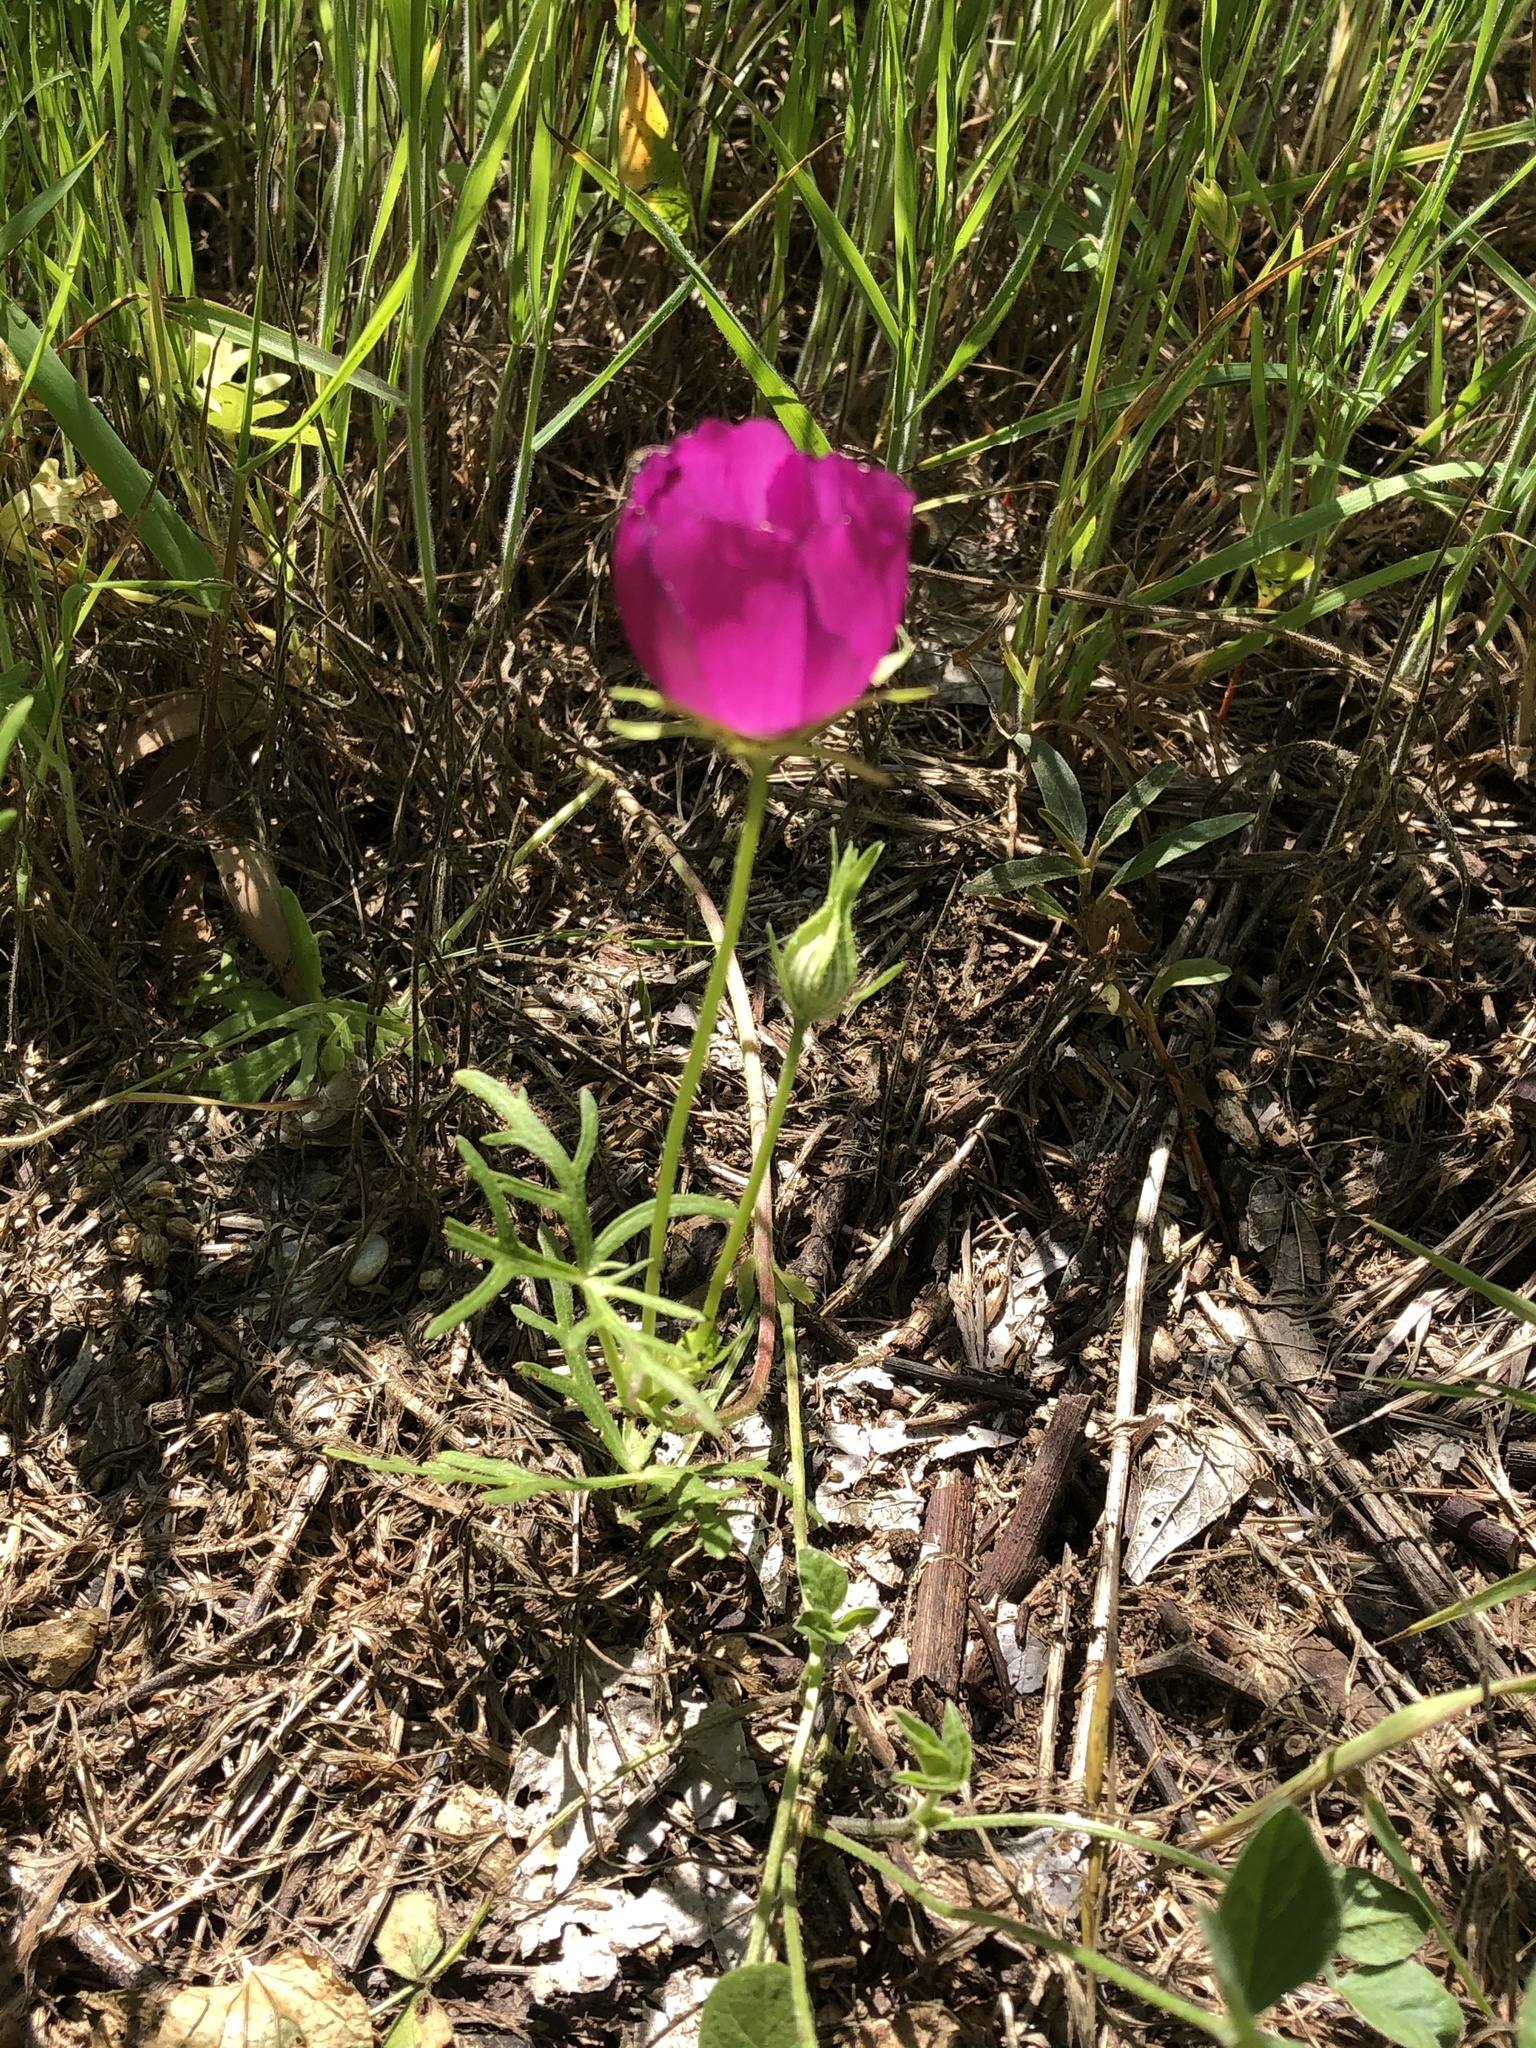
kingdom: Plantae
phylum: Tracheophyta
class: Magnoliopsida
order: Malvales
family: Malvaceae
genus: Callirhoe
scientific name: Callirhoe involucrata
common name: Purple poppy-mallow
